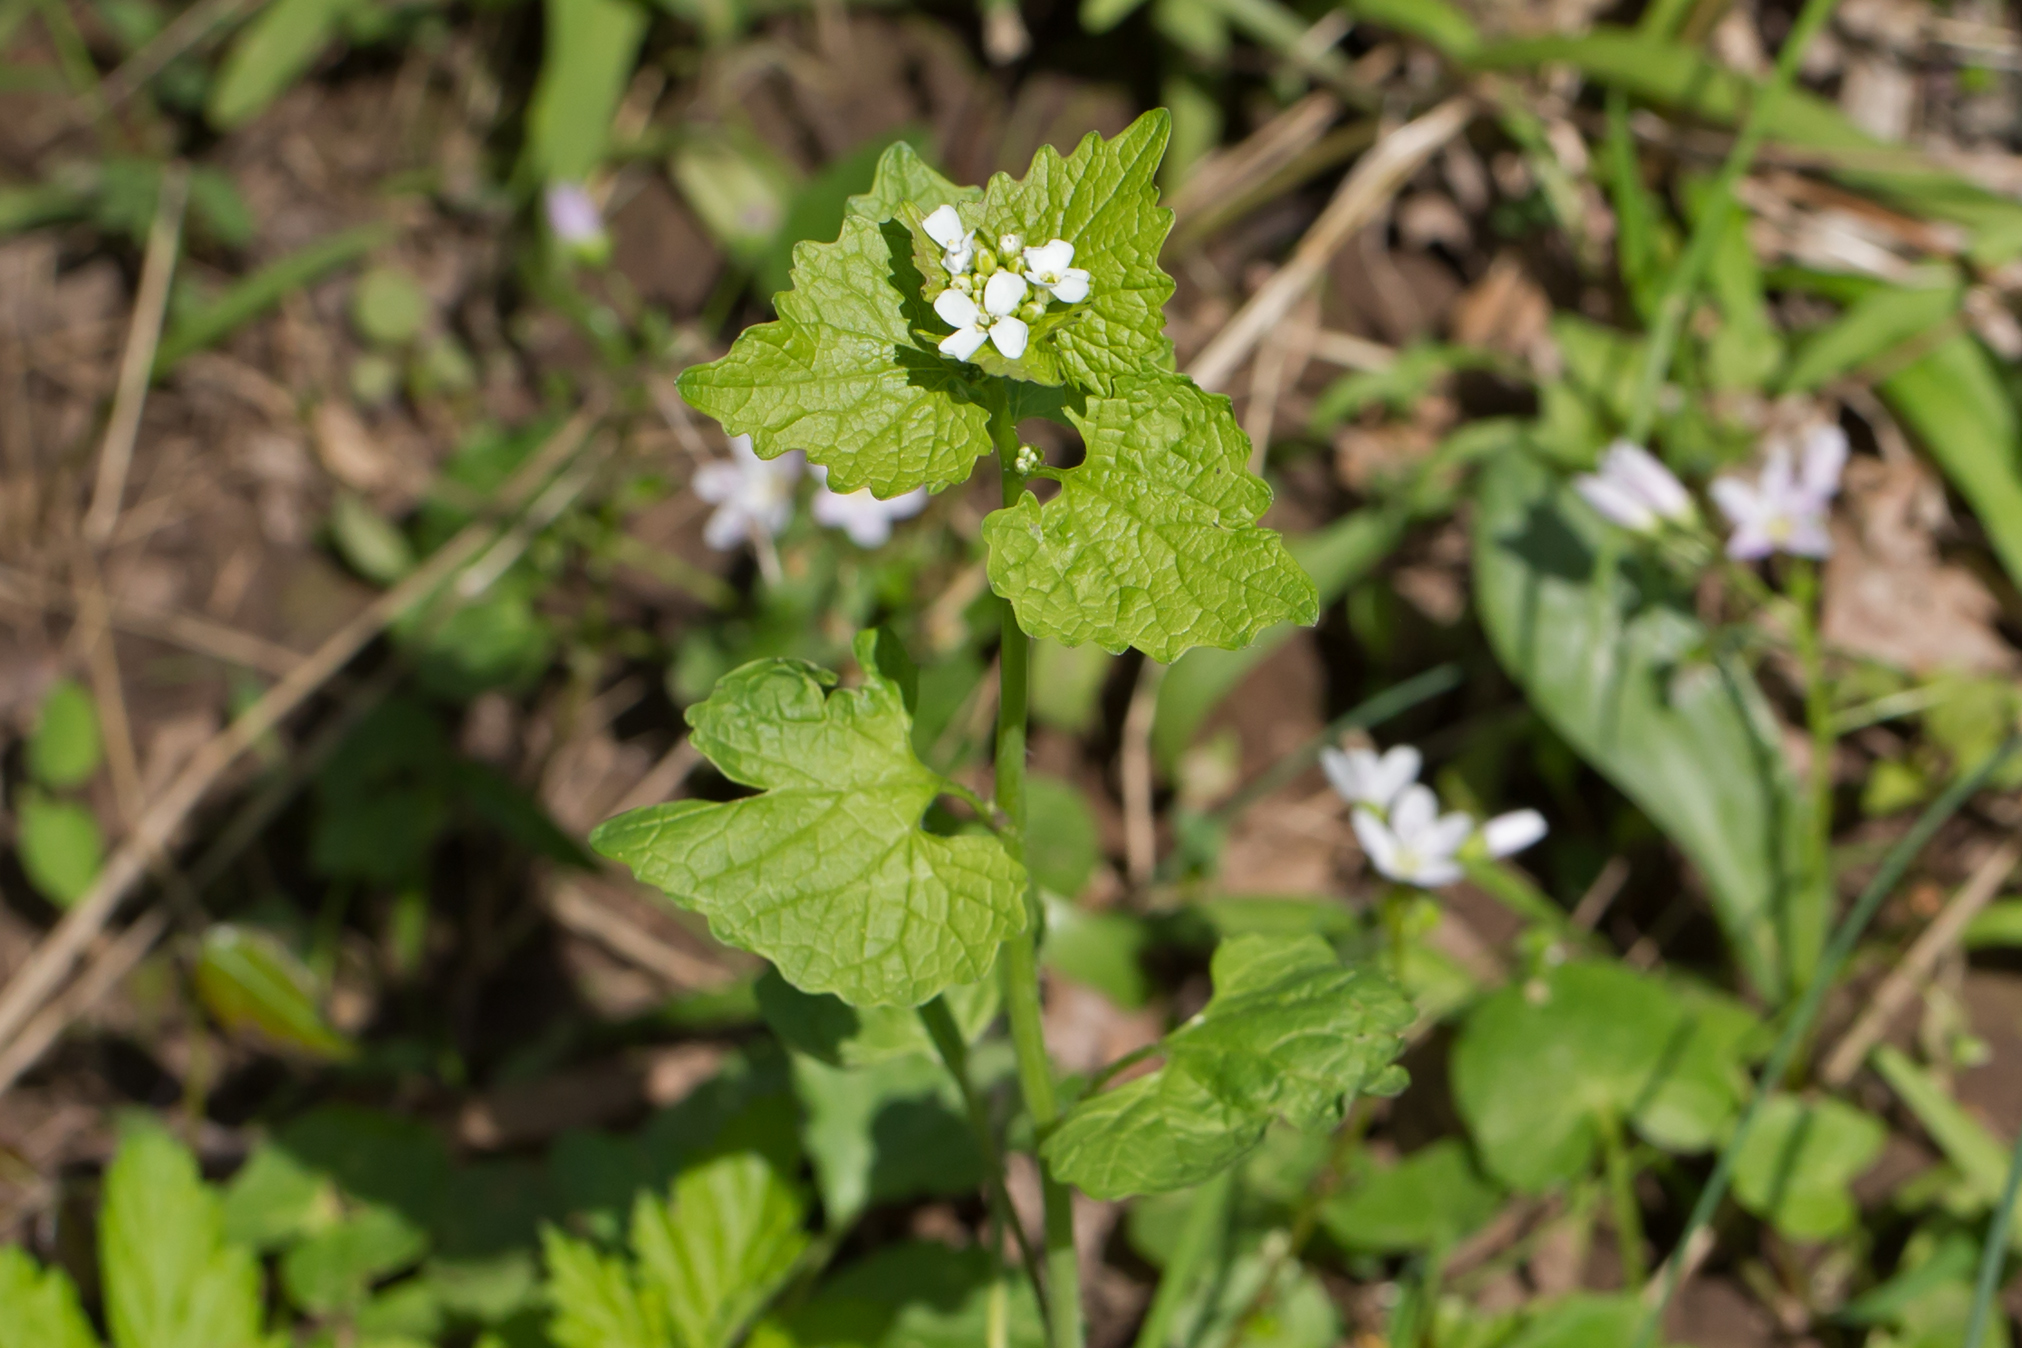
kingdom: Plantae
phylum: Tracheophyta
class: Magnoliopsida
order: Brassicales
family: Brassicaceae
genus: Alliaria
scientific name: Alliaria petiolata
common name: Garlic mustard
